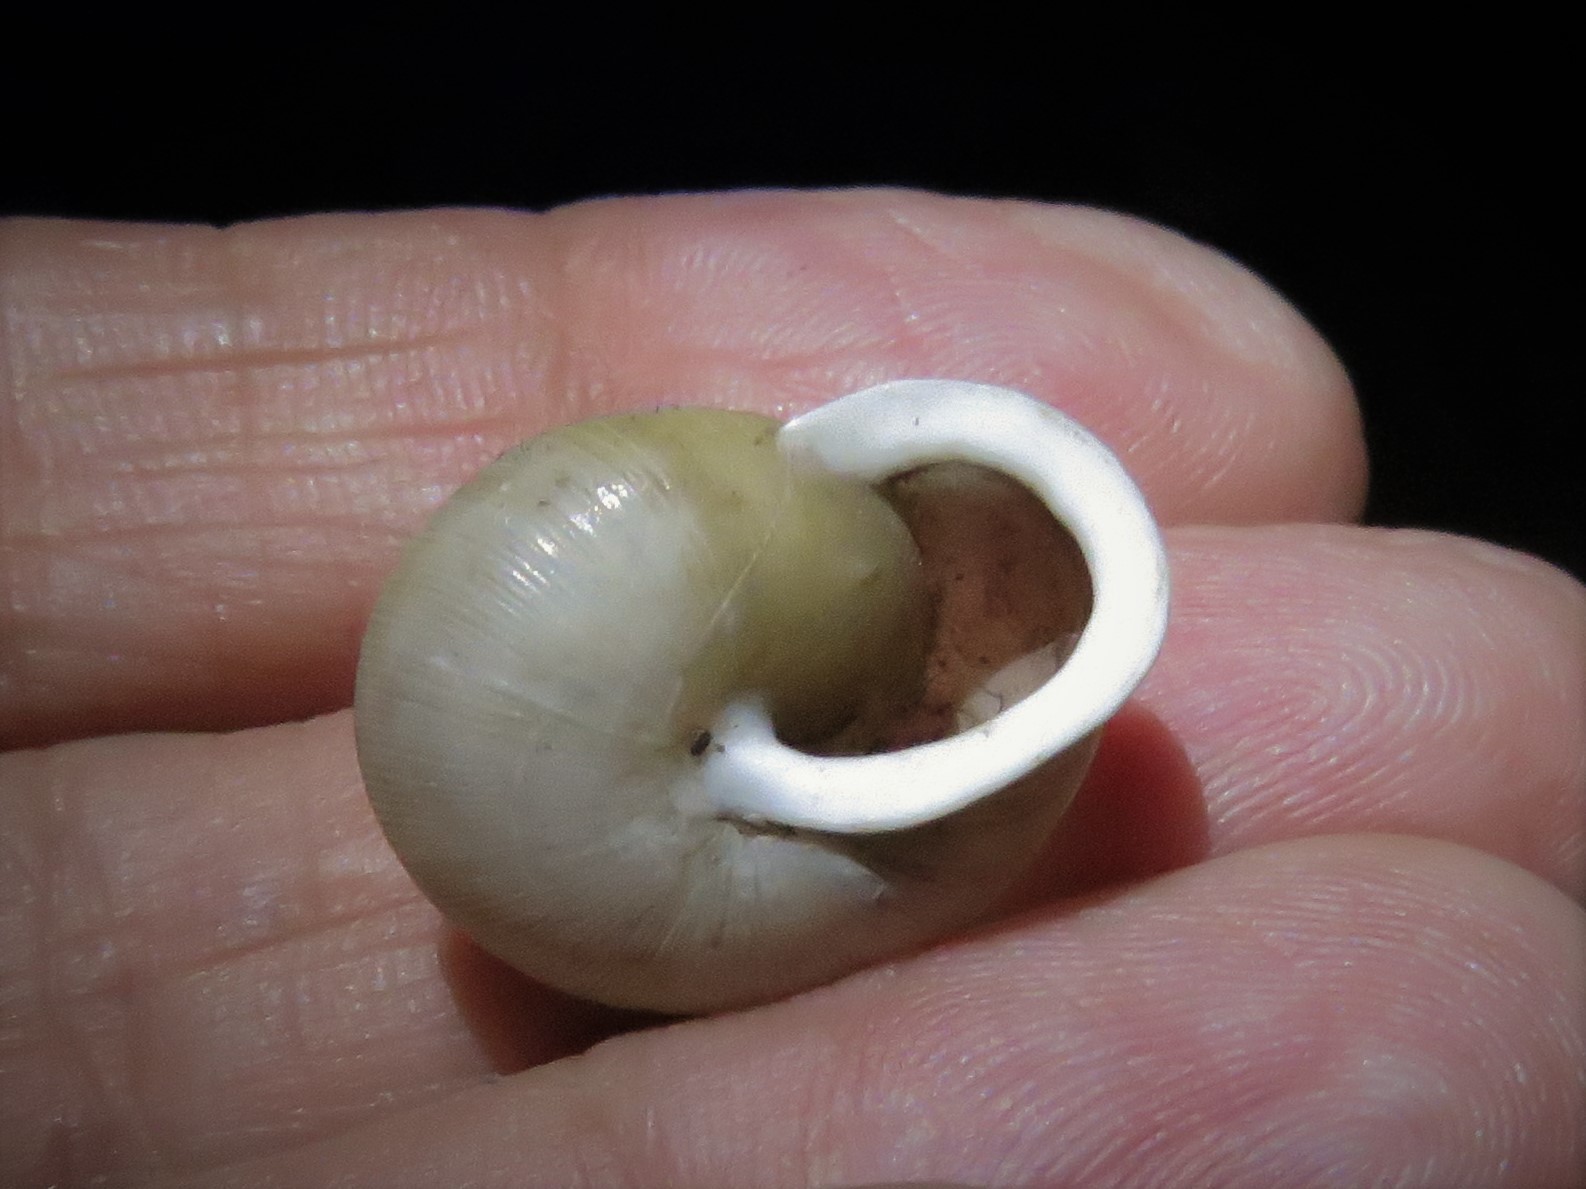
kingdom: Animalia
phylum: Mollusca
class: Gastropoda
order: Stylommatophora
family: Polygyridae
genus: Mesodon
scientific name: Mesodon thyroidus
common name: White-lip globe
